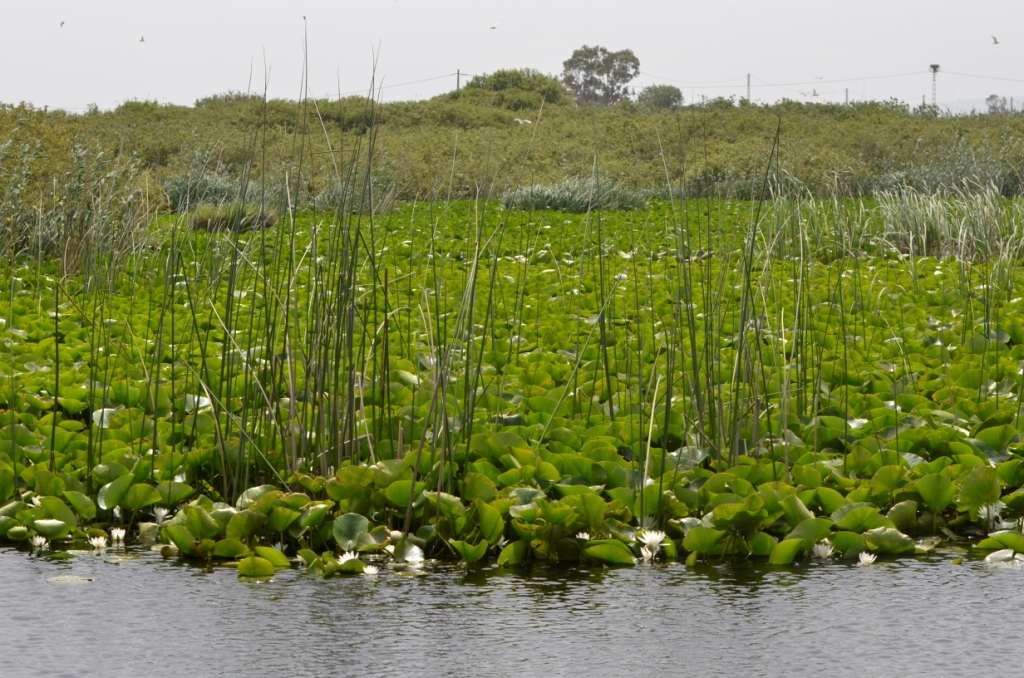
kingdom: Plantae
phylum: Tracheophyta
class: Magnoliopsida
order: Nymphaeales
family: Nymphaeaceae
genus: Nymphaea
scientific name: Nymphaea alba
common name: White water-lily
